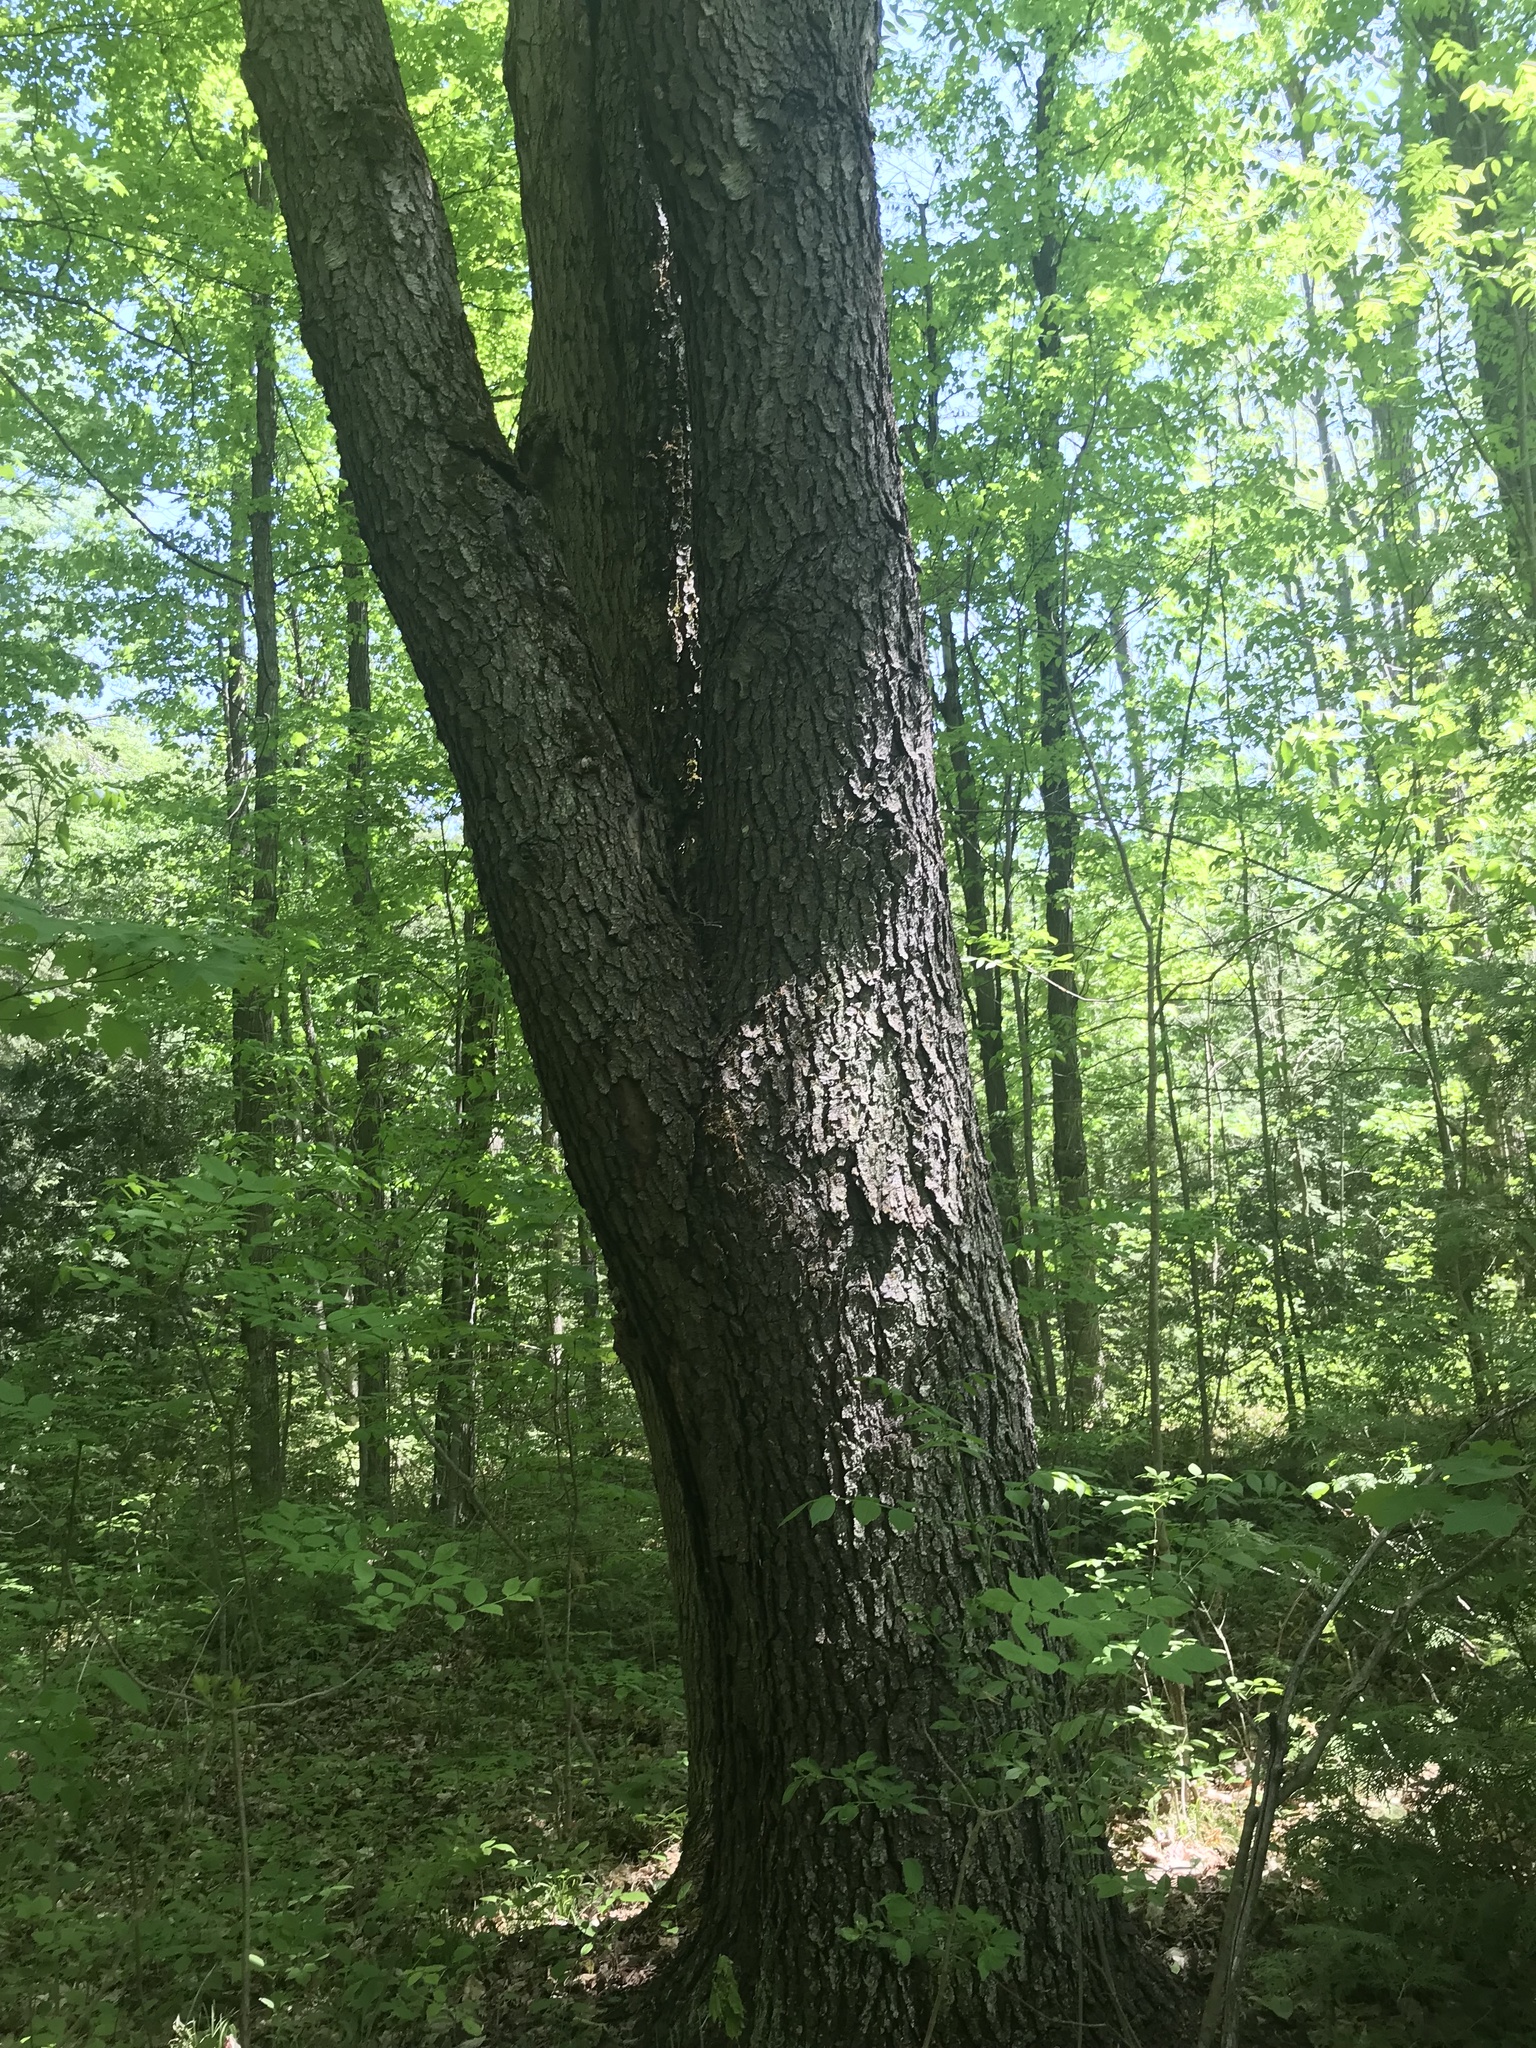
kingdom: Plantae
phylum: Tracheophyta
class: Magnoliopsida
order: Rosales
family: Rosaceae
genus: Prunus
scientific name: Prunus serotina
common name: Black cherry
